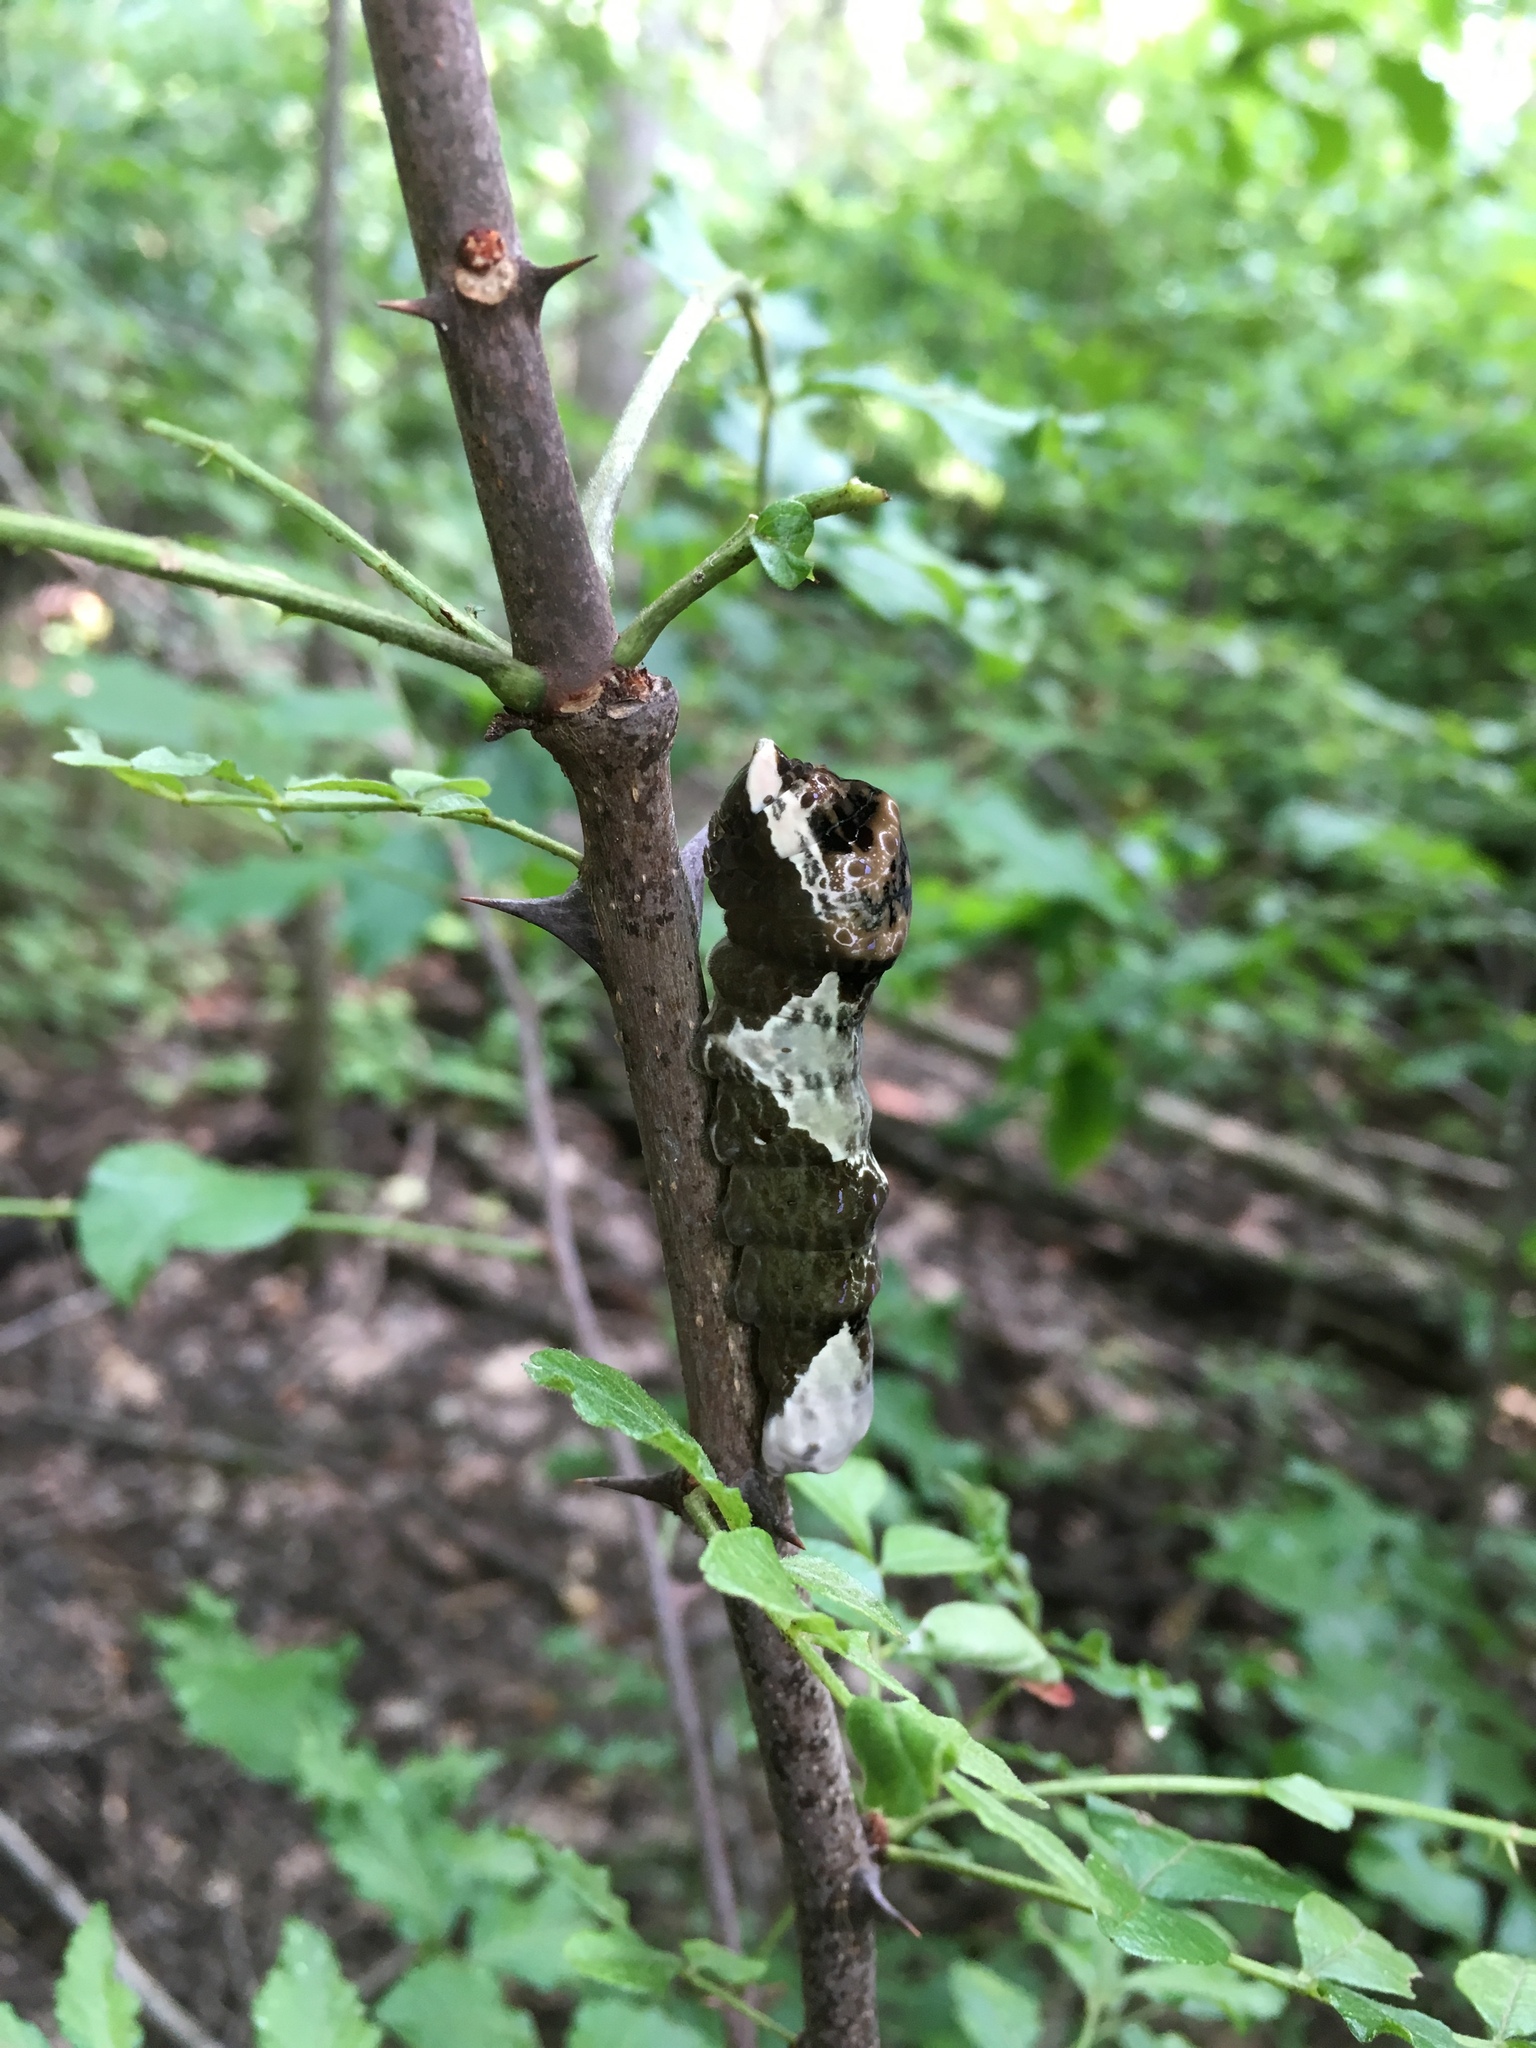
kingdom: Animalia
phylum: Arthropoda
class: Insecta
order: Lepidoptera
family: Papilionidae
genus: Papilio
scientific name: Papilio cresphontes
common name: Giant swallowtail
